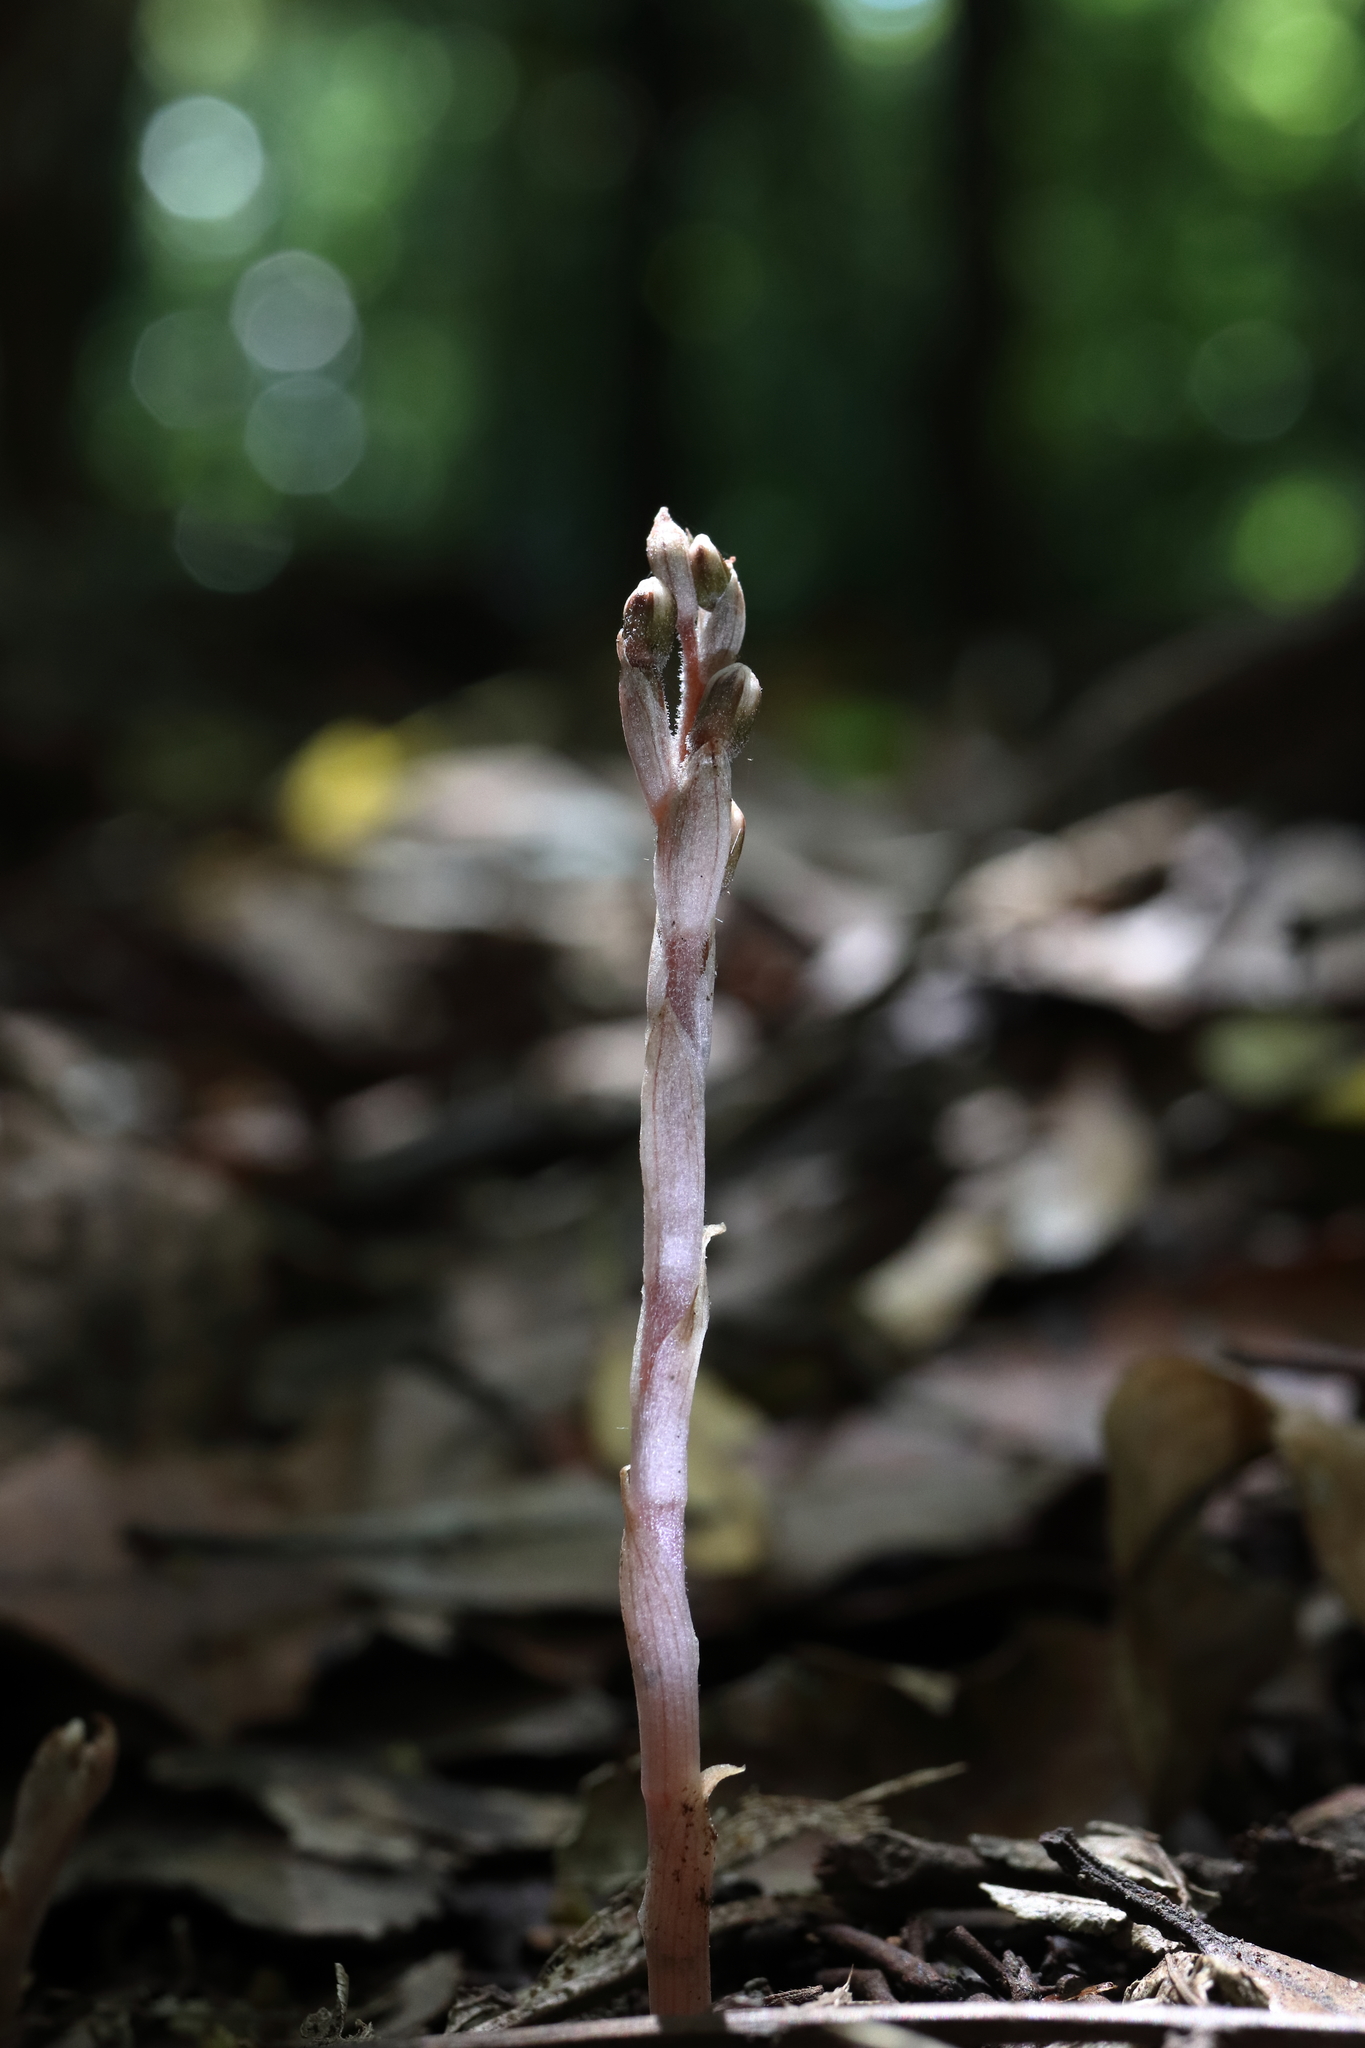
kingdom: Plantae
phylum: Tracheophyta
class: Liliopsida
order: Asparagales
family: Orchidaceae
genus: Danhatchia
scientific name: Danhatchia australis
